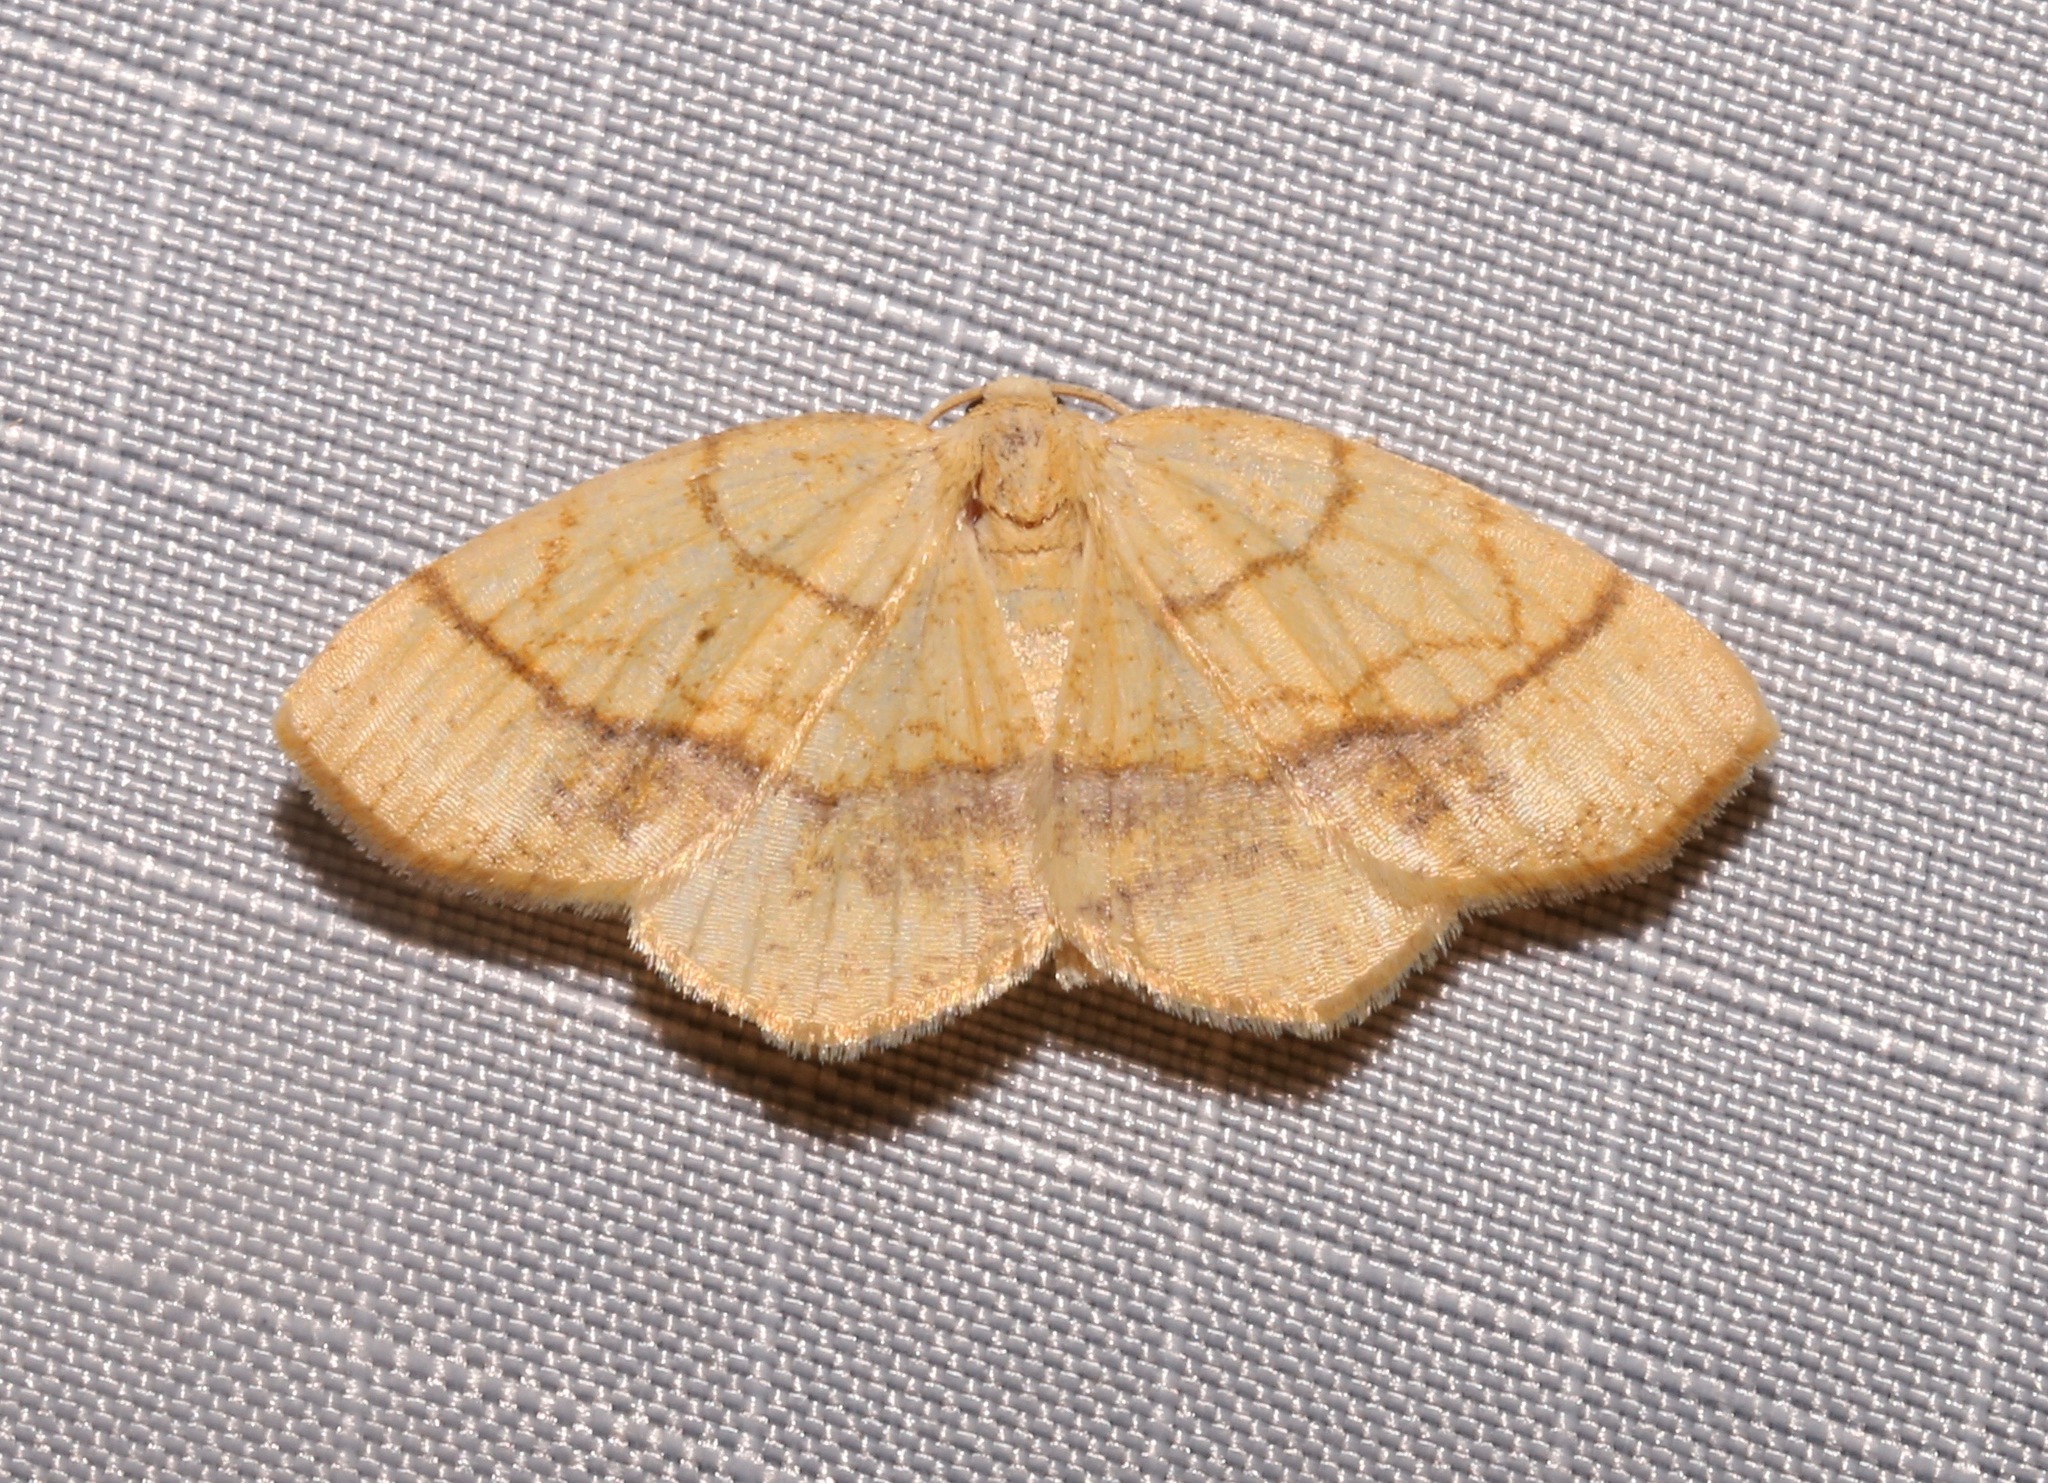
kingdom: Animalia
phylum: Arthropoda
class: Insecta
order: Lepidoptera
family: Geometridae
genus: Nematocampa
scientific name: Nematocampa resistaria
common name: Horned spanworm moth
